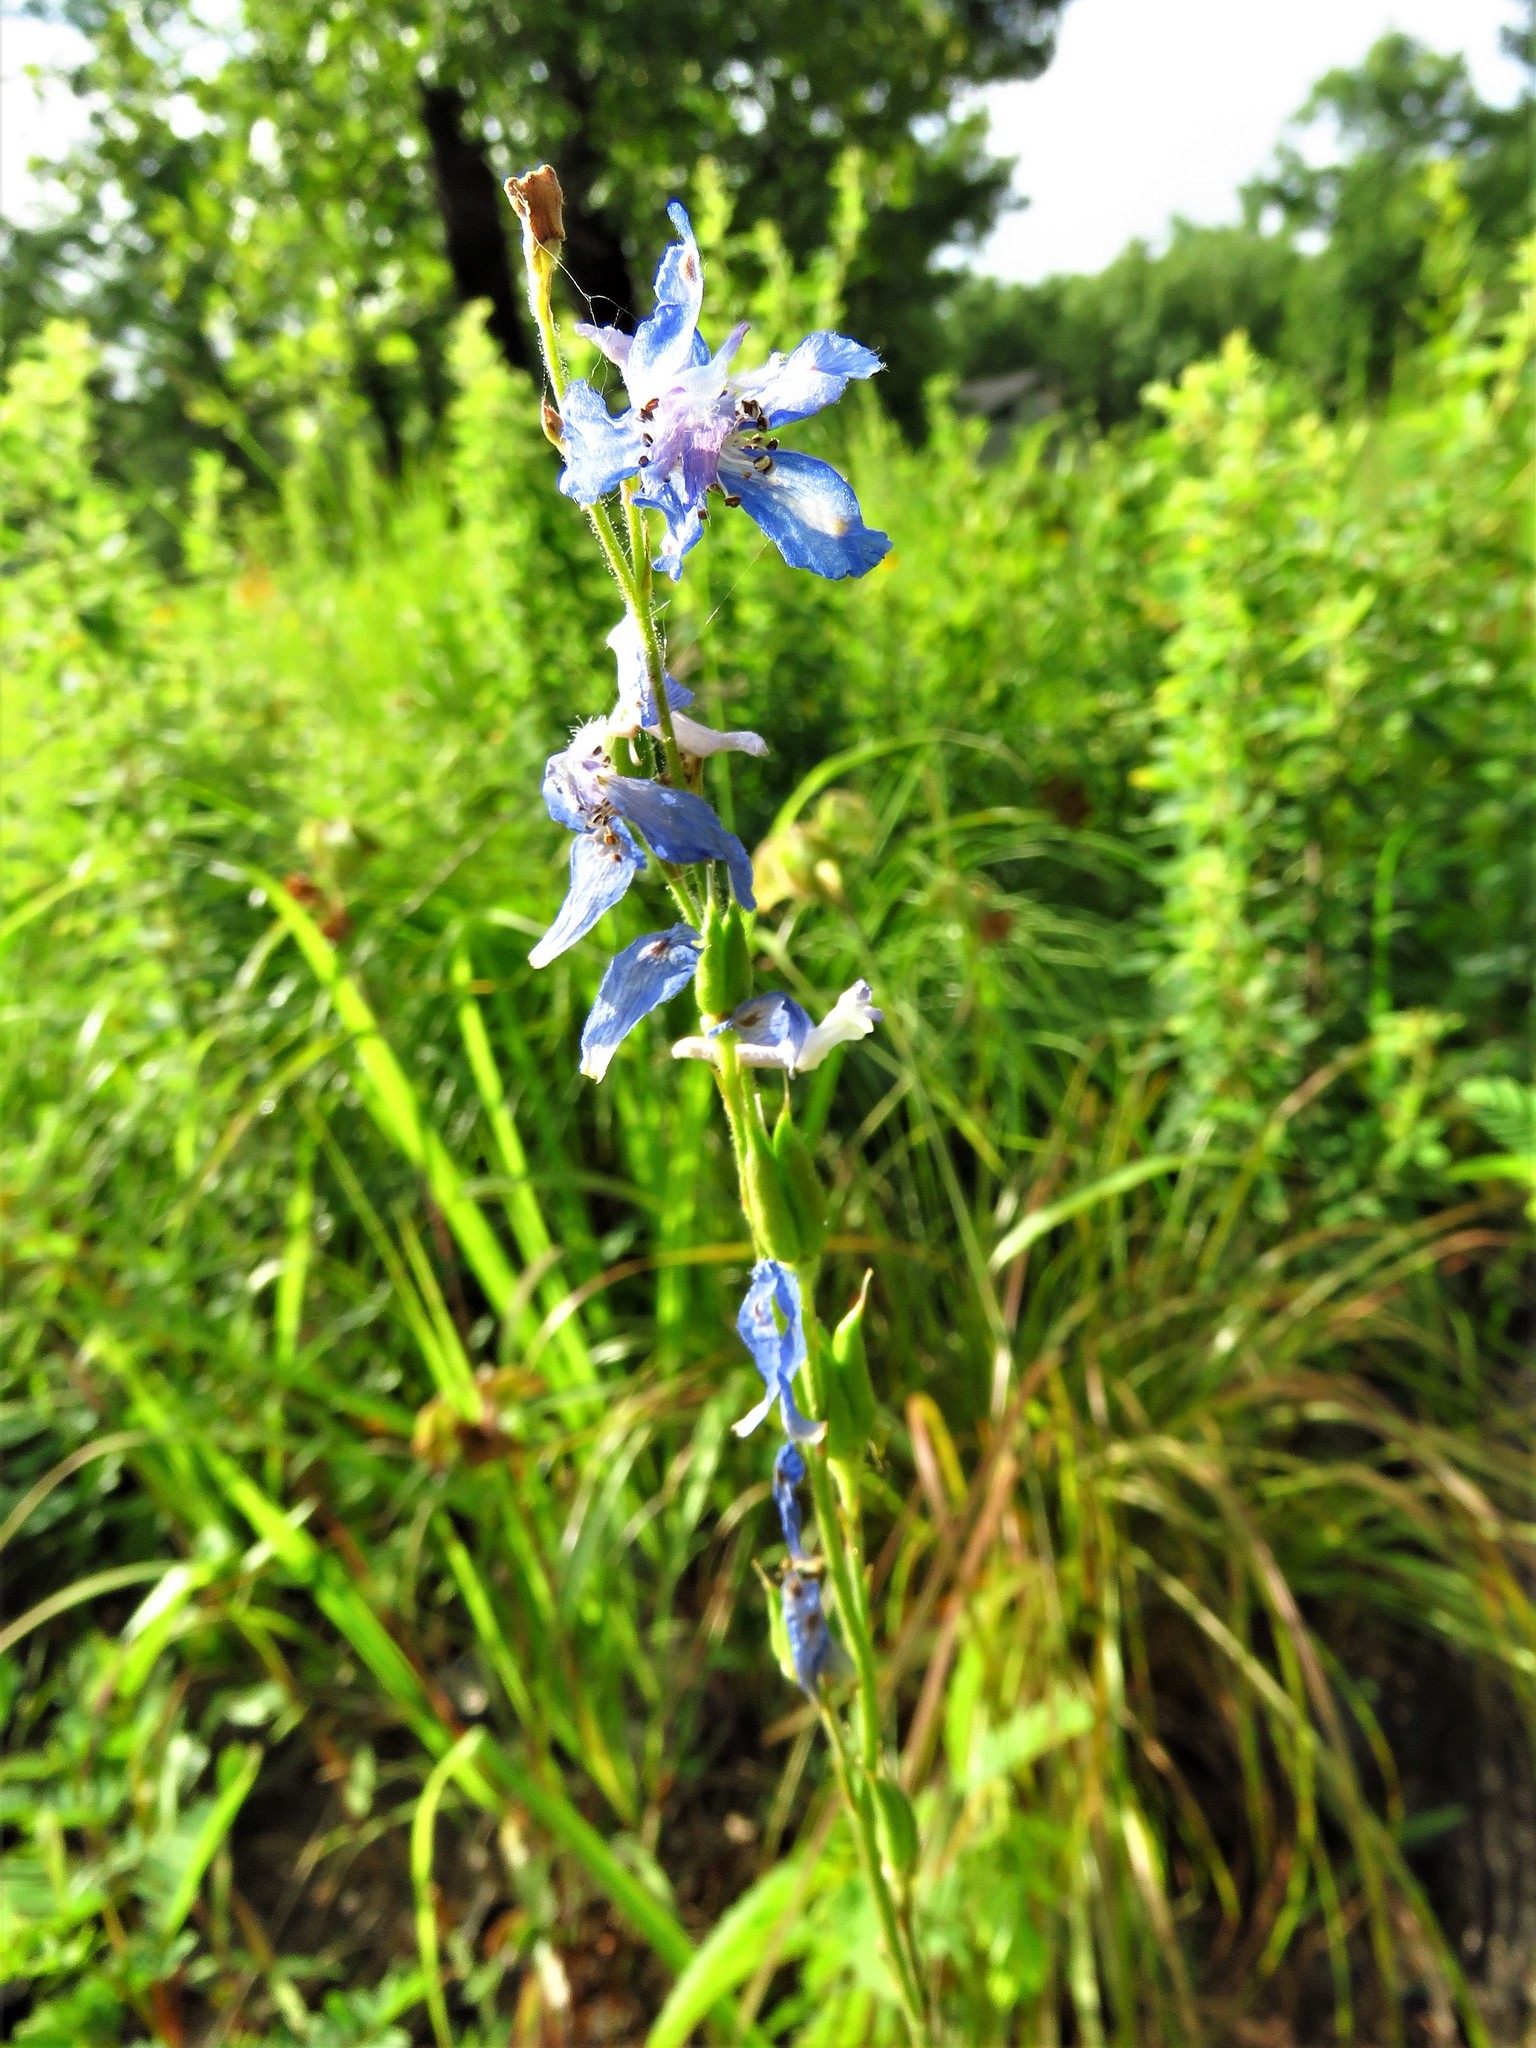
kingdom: Plantae
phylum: Tracheophyta
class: Magnoliopsida
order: Ranunculales
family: Ranunculaceae
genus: Delphinium
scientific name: Delphinium carolinianum
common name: Carolina larkspur
